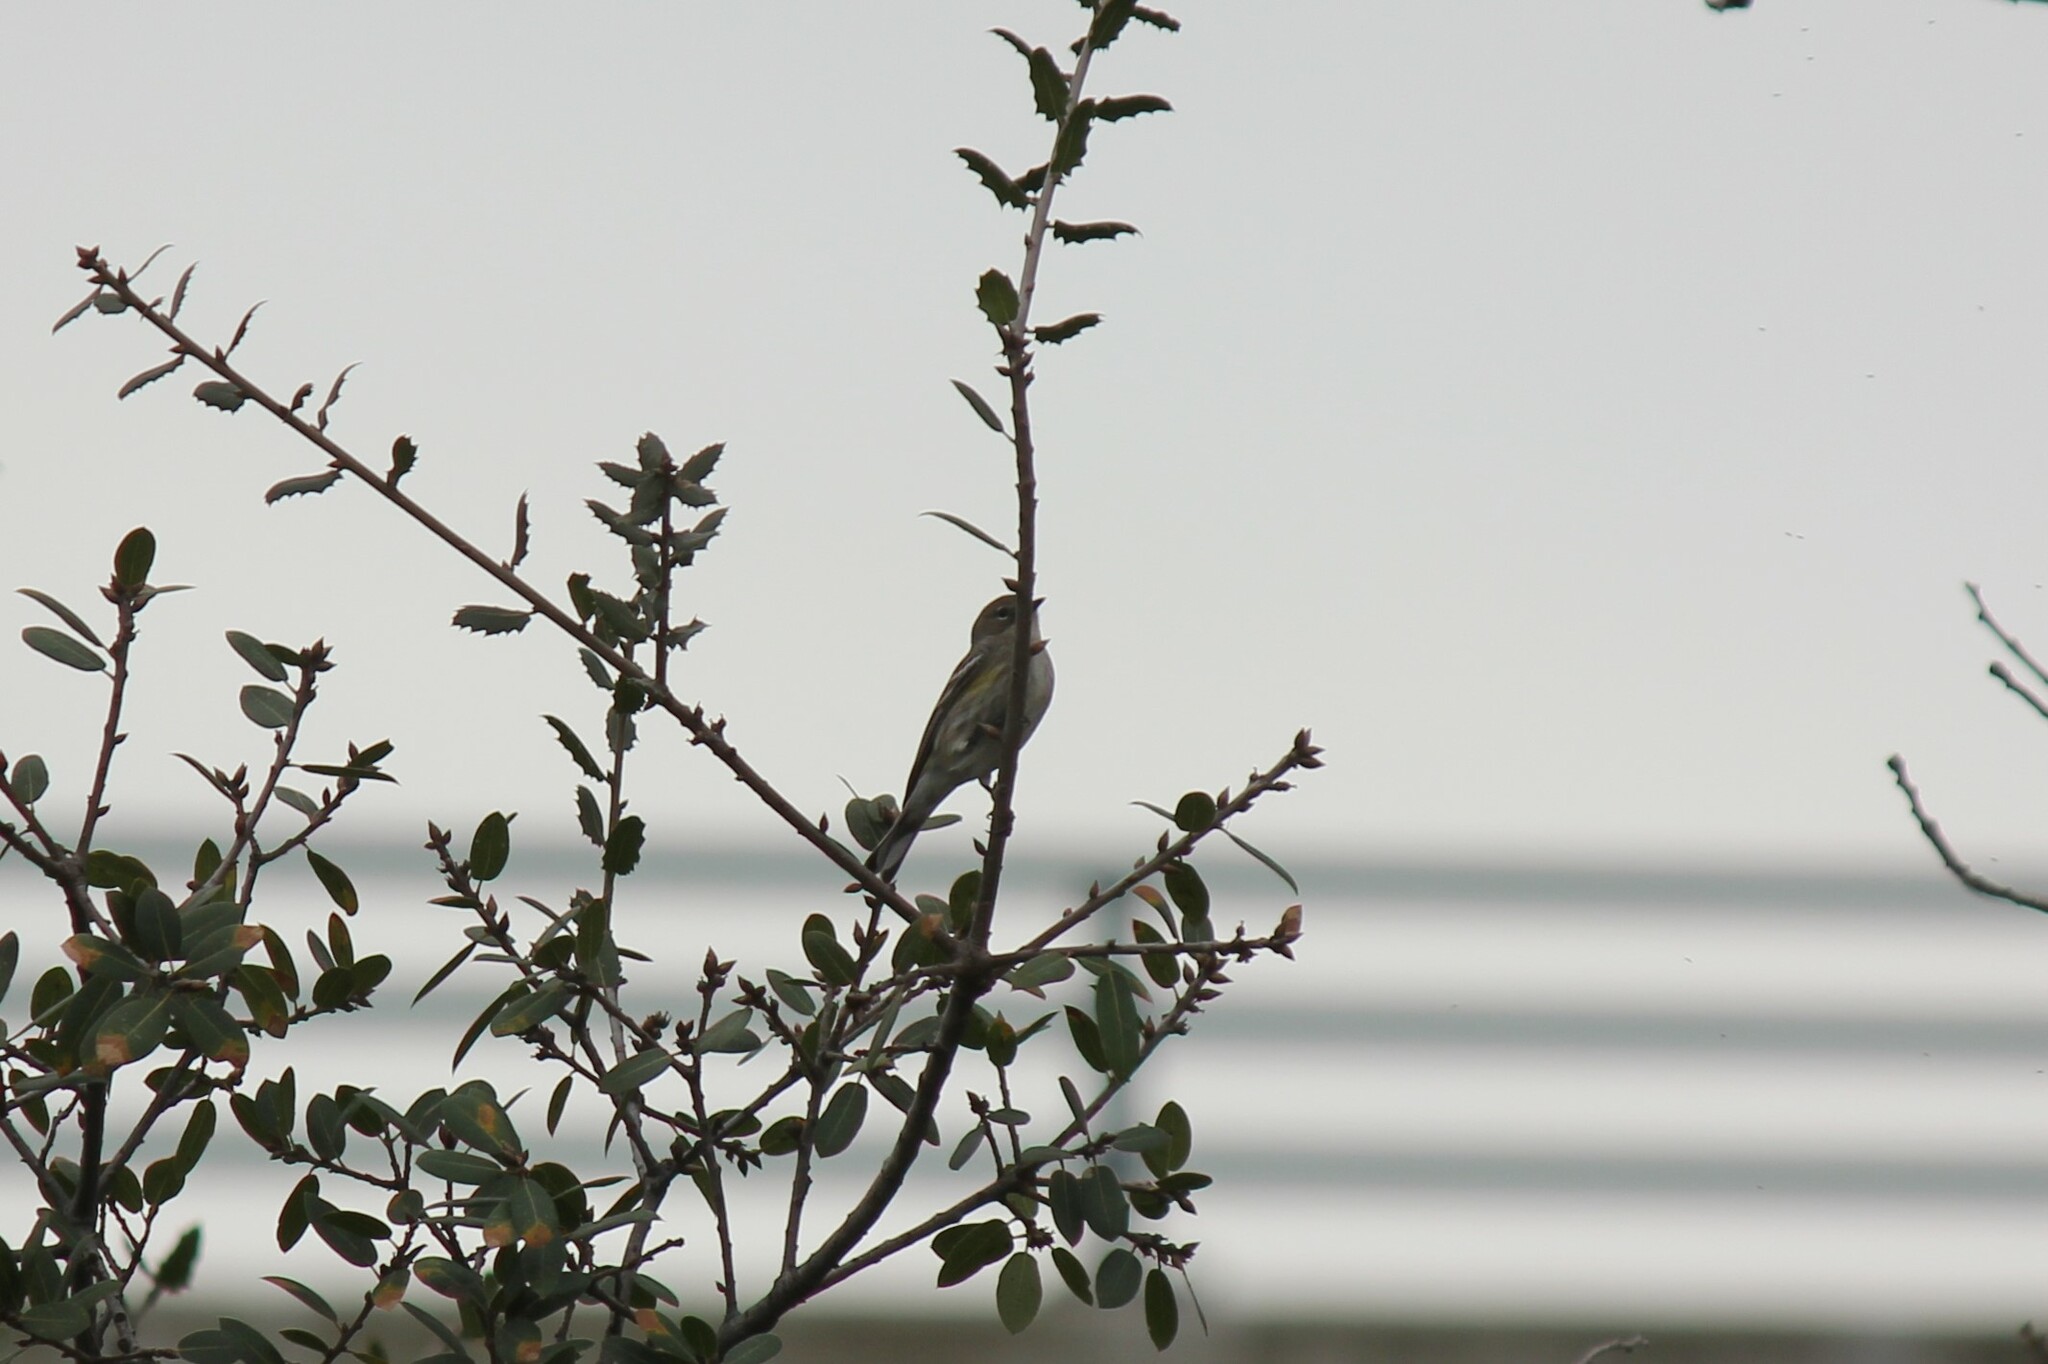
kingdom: Animalia
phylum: Chordata
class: Aves
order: Passeriformes
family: Parulidae
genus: Setophaga
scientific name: Setophaga coronata
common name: Myrtle warbler
